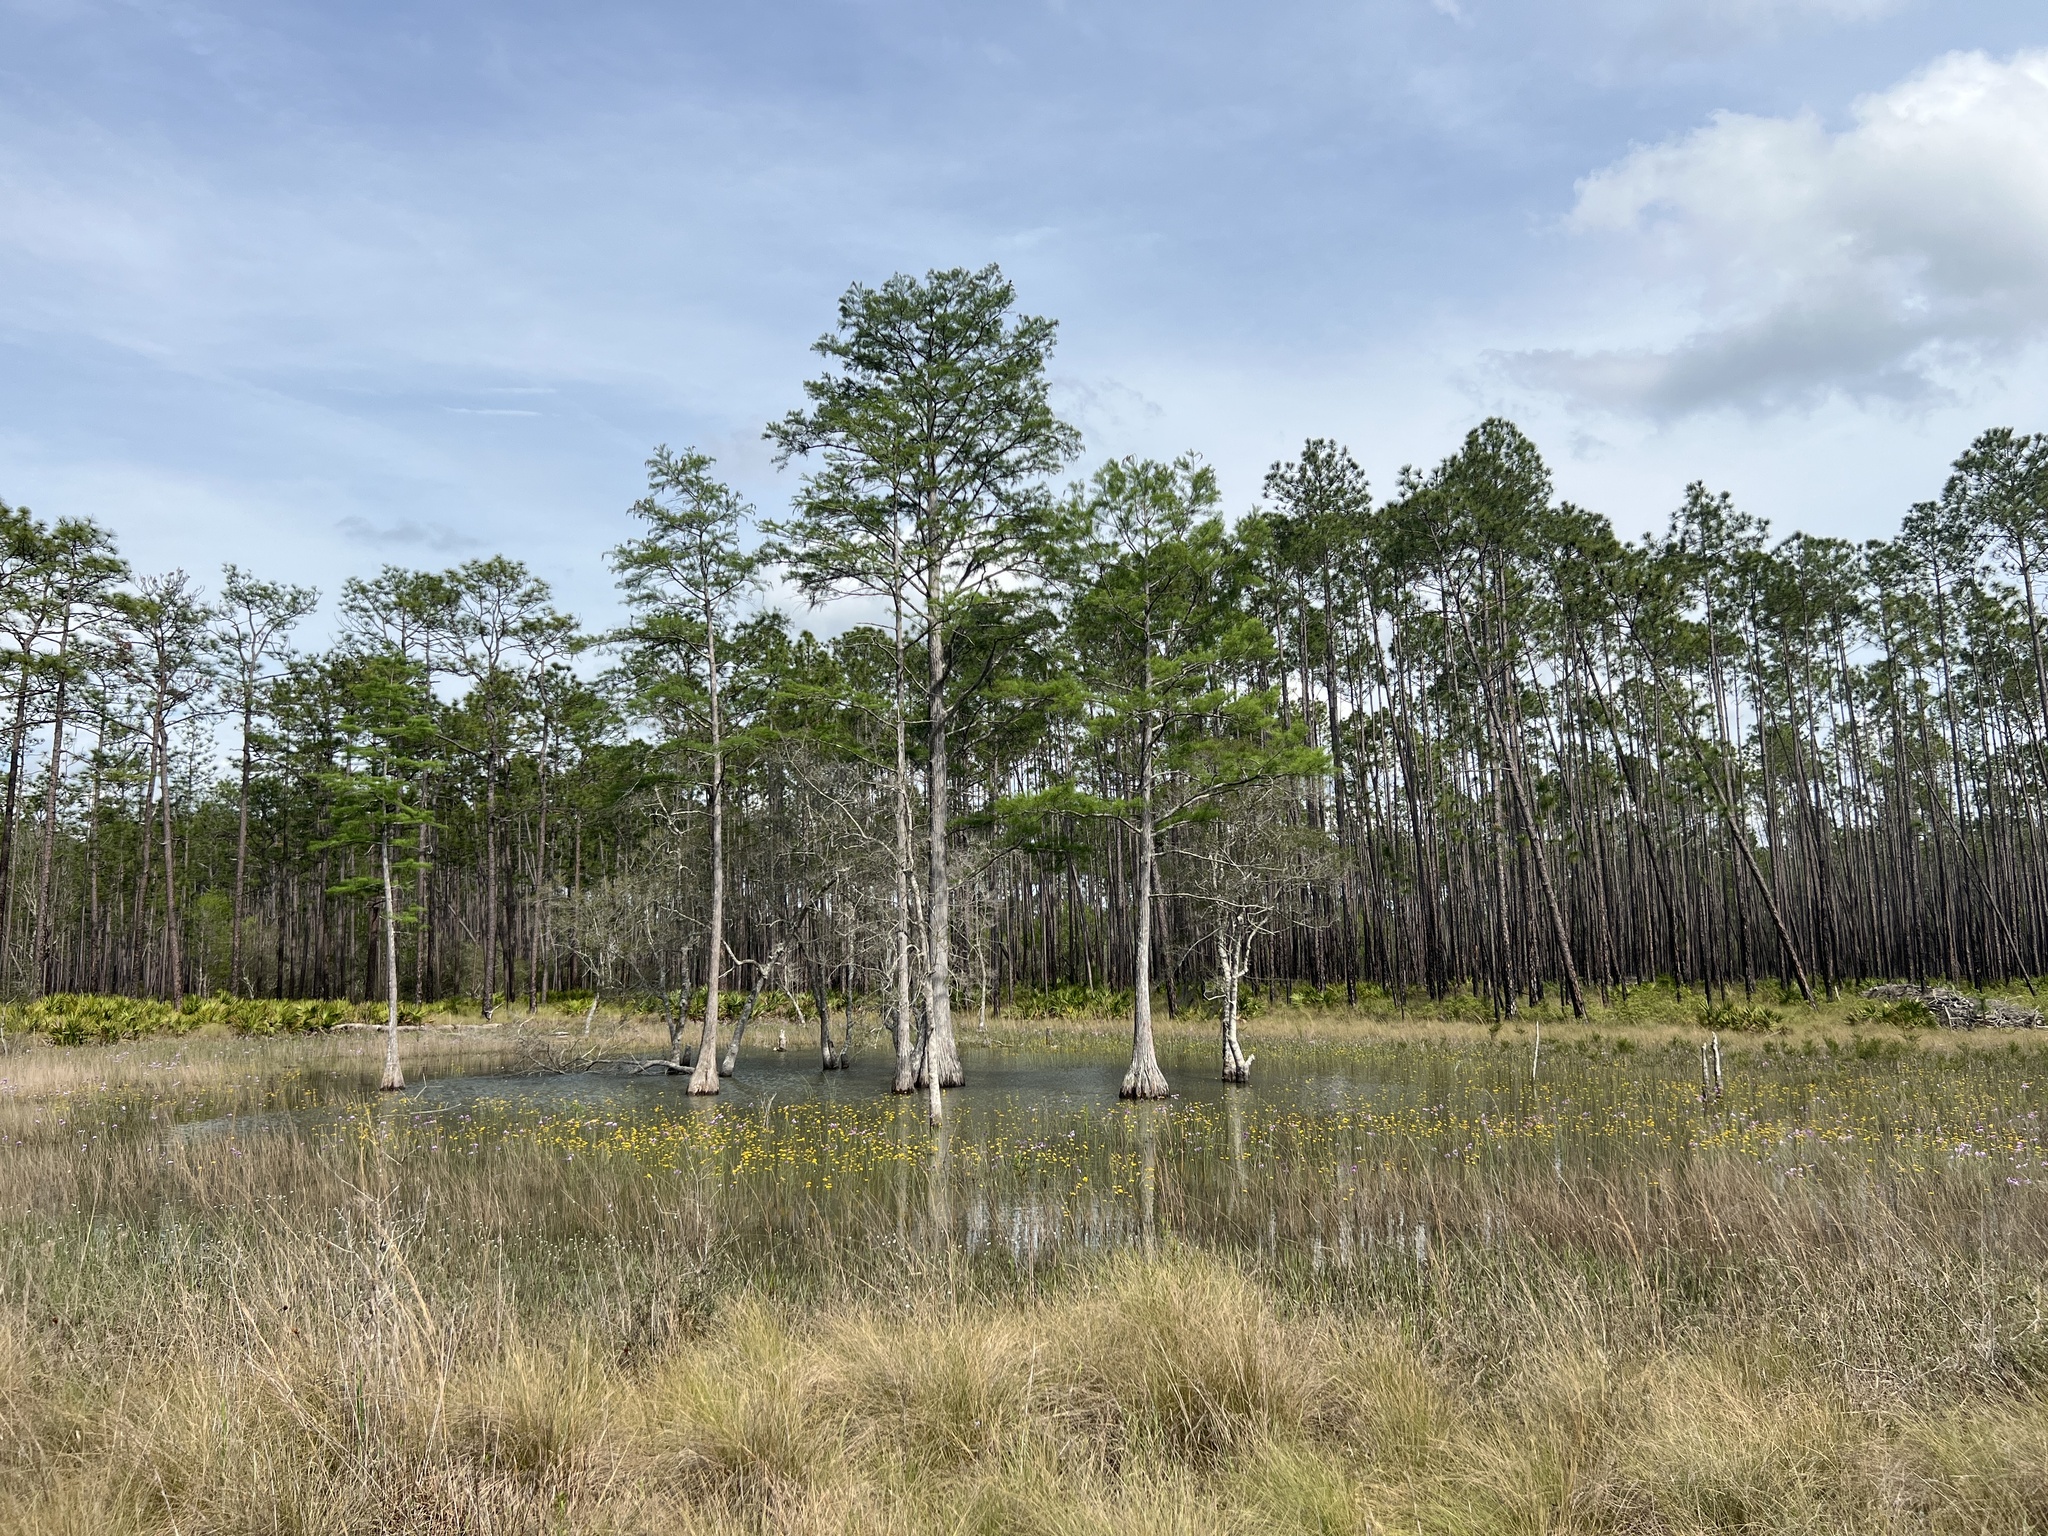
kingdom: Plantae
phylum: Tracheophyta
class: Pinopsida
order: Pinales
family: Cupressaceae
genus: Taxodium
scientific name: Taxodium distichum
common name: Bald cypress
